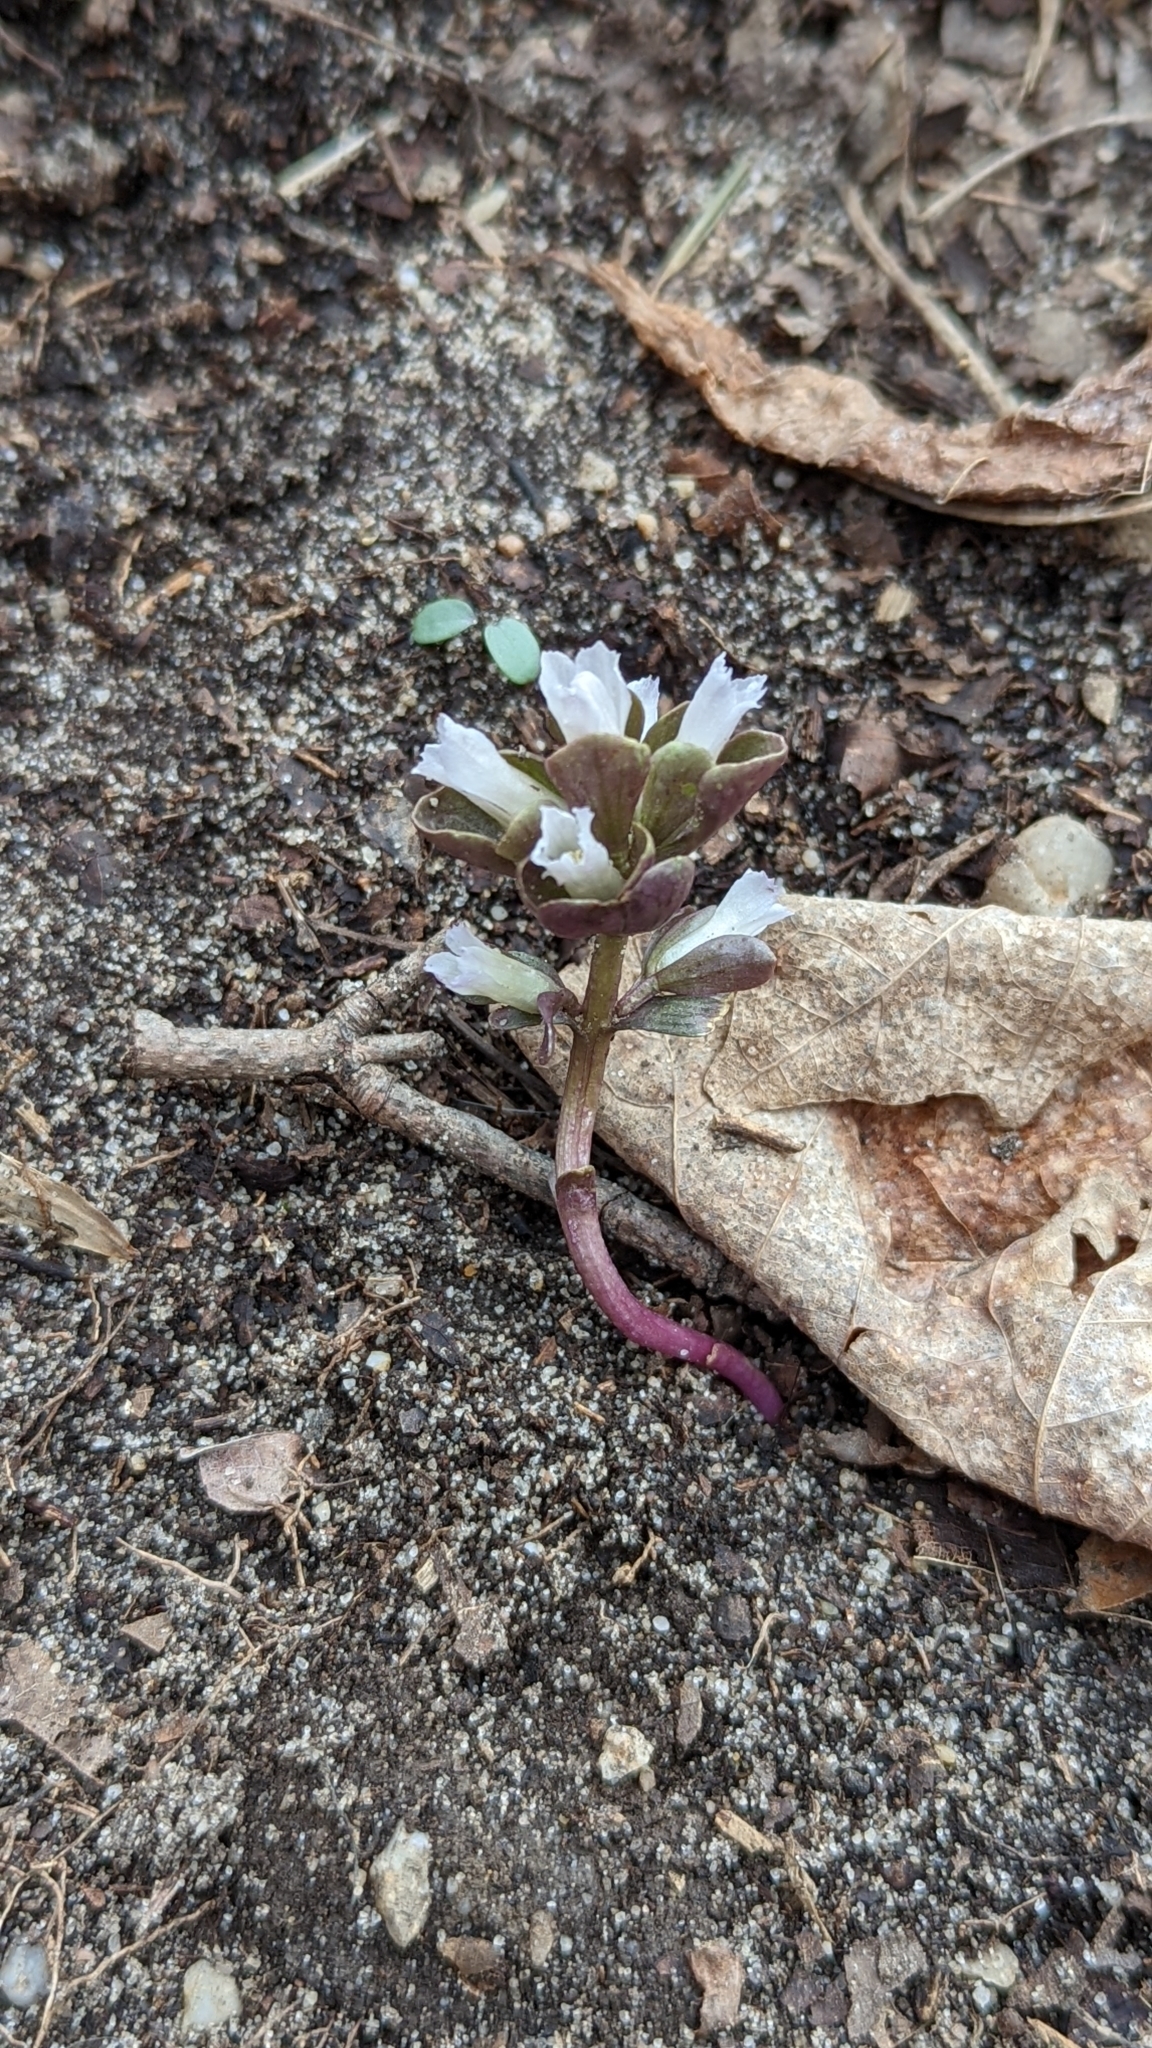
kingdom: Plantae
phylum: Tracheophyta
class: Magnoliopsida
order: Gentianales
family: Gentianaceae
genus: Obolaria
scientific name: Obolaria virginica
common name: Pennywort
